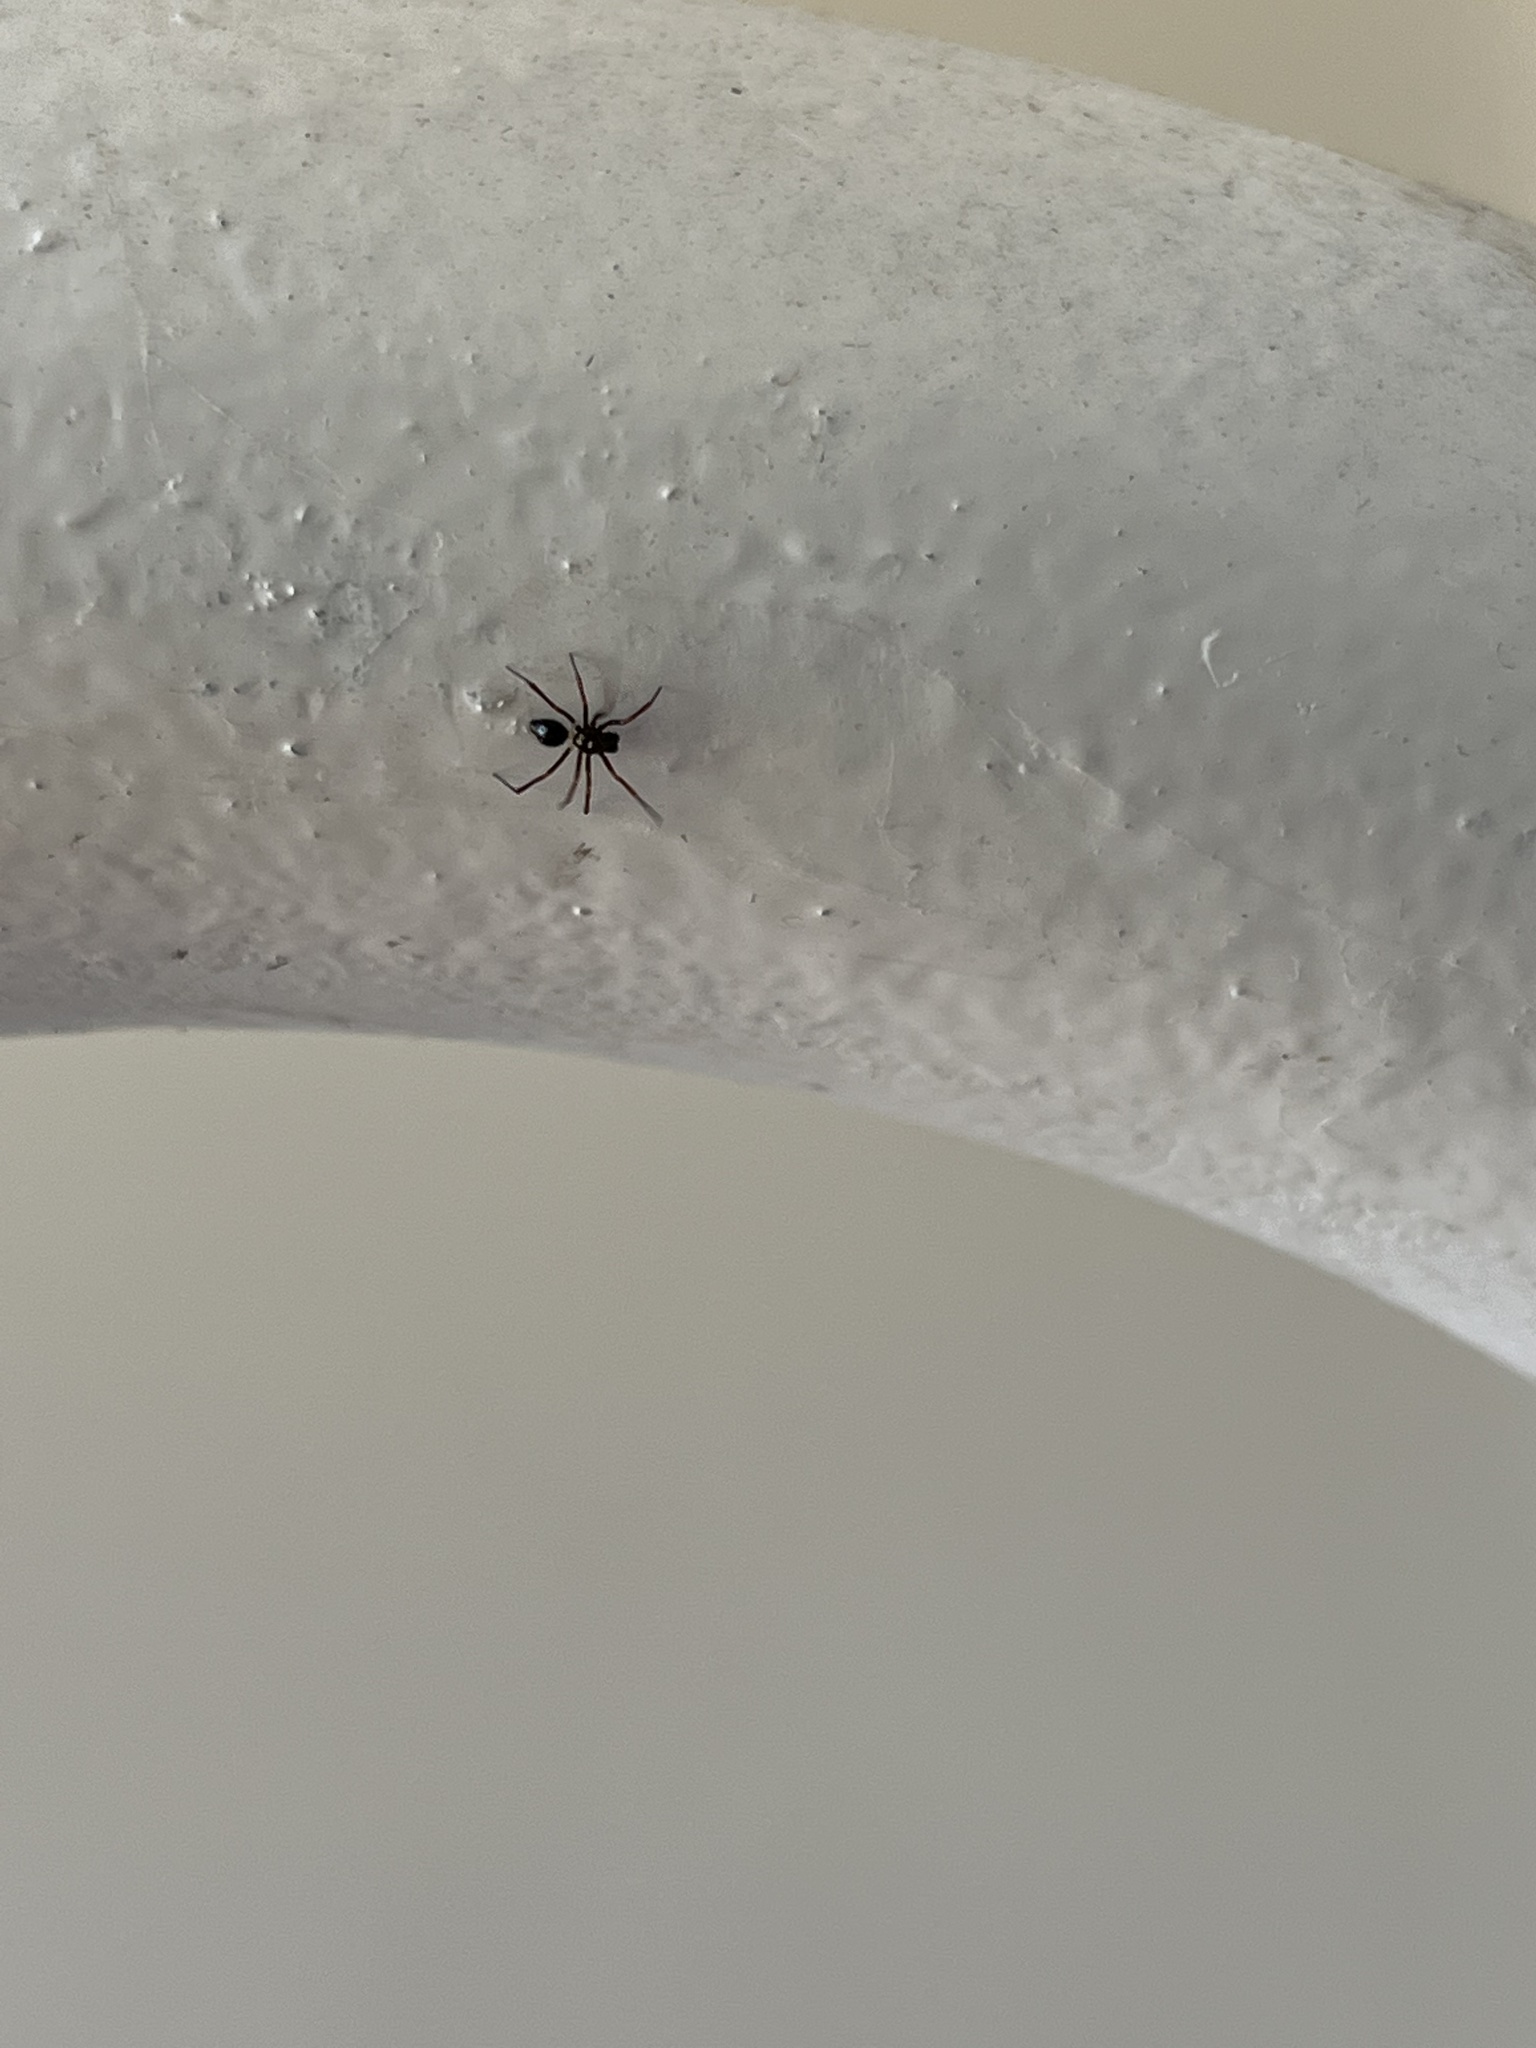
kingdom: Animalia
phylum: Arthropoda
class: Arachnida
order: Araneae
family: Theridiidae
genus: Euryopis
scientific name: Euryopis episinoides
